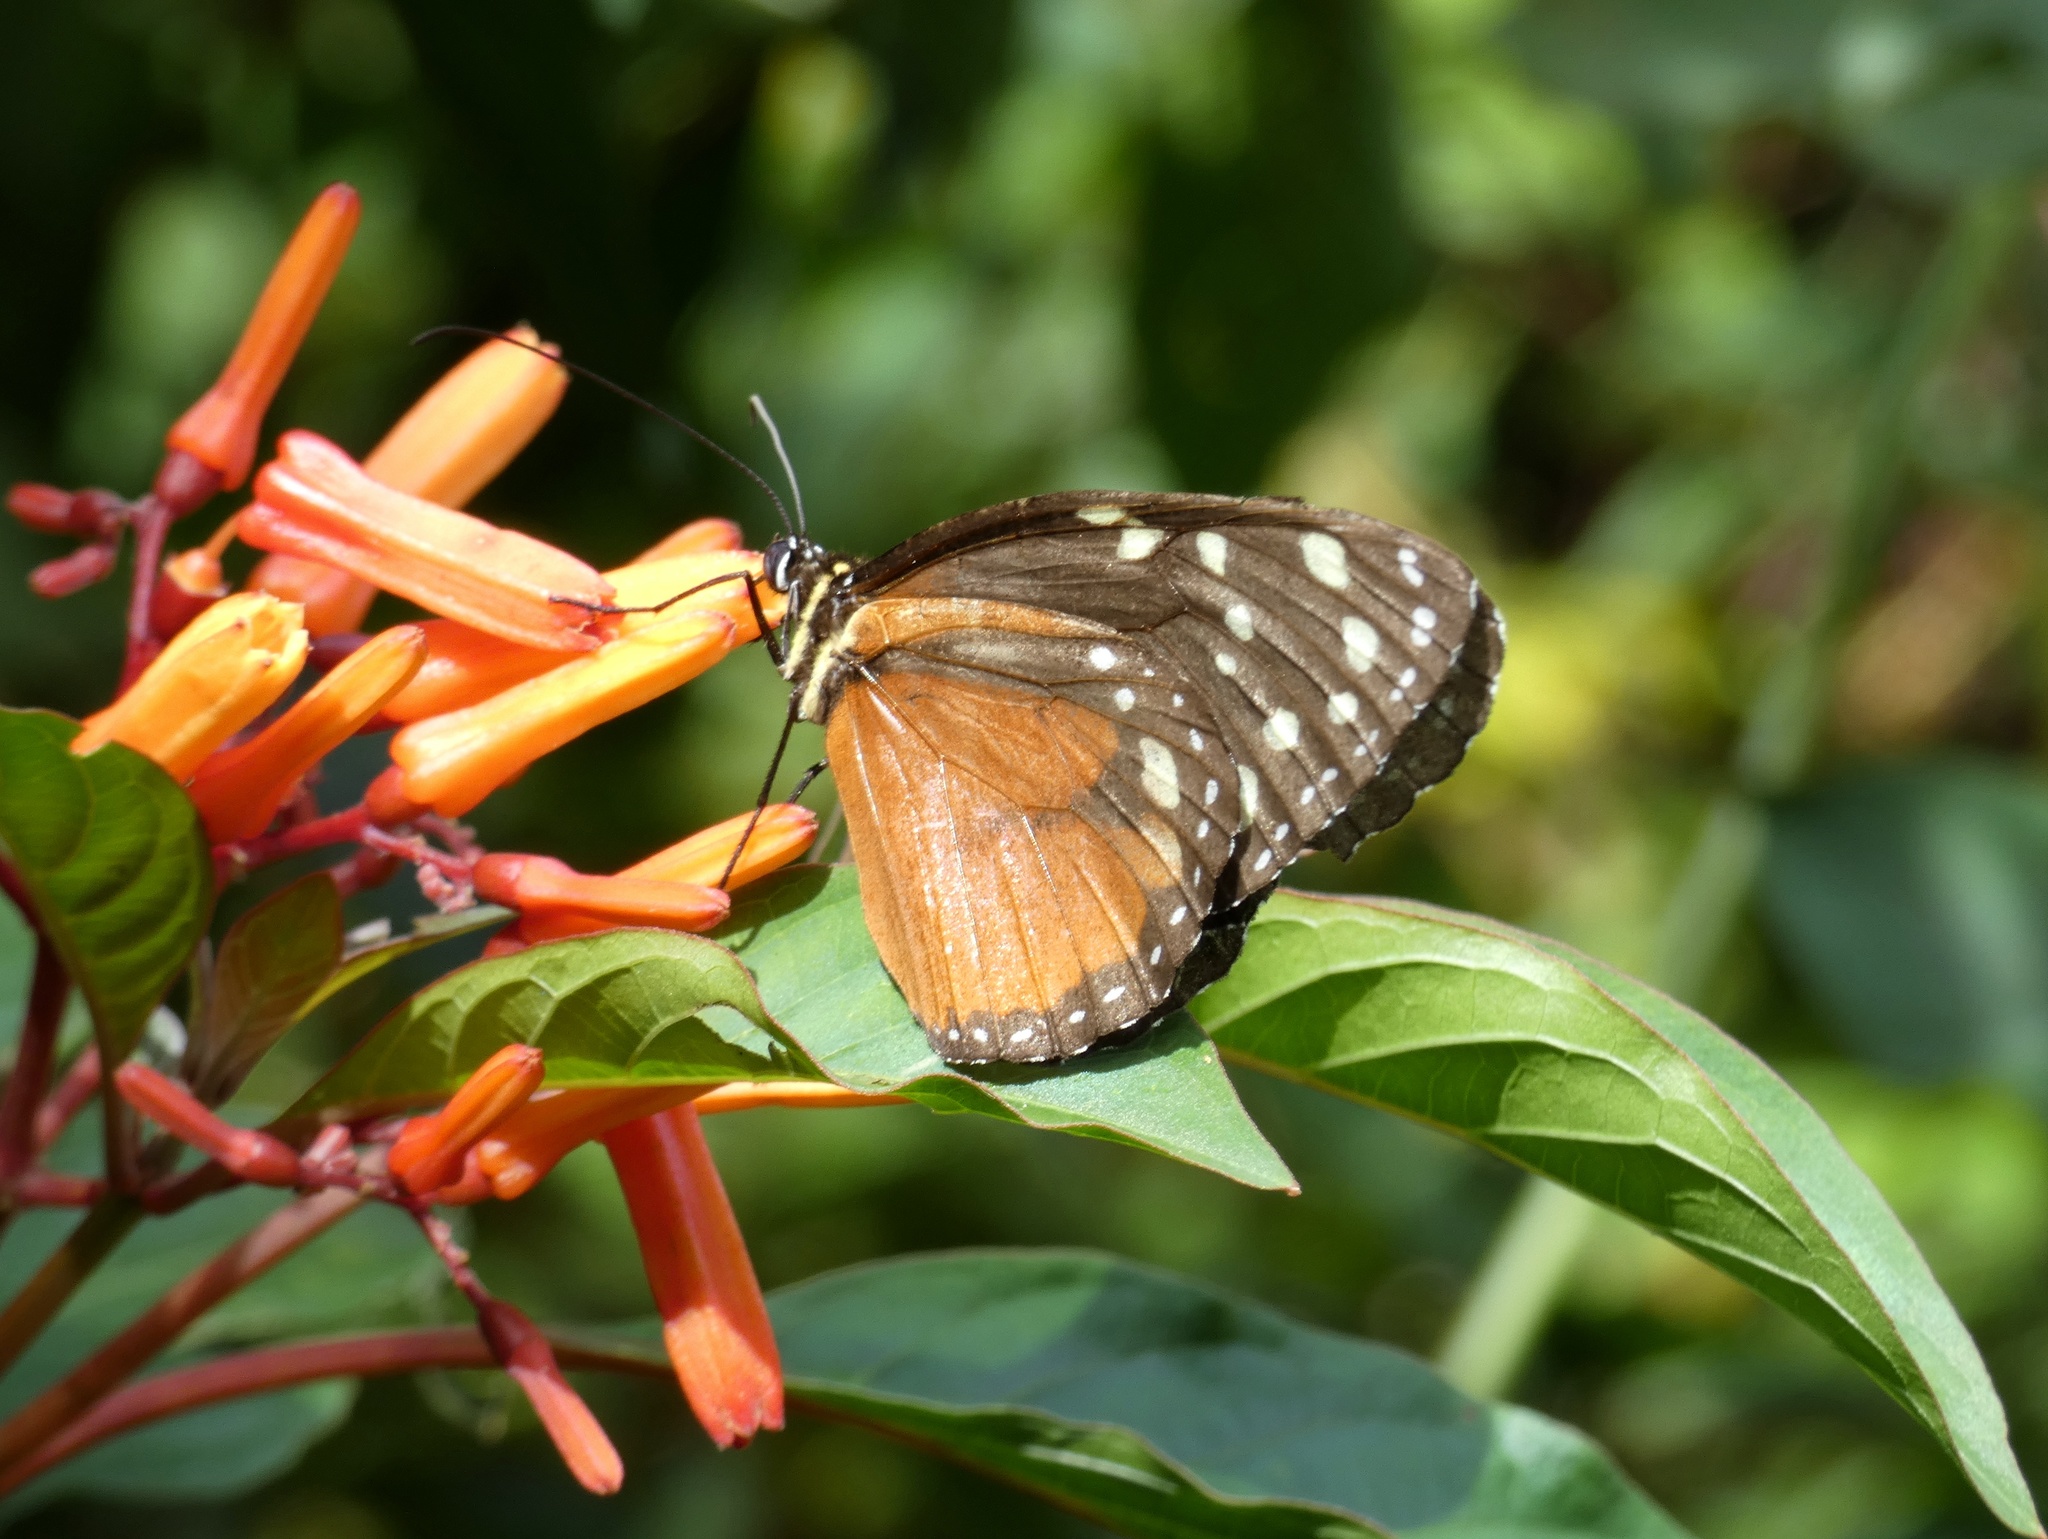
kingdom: Animalia
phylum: Arthropoda
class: Insecta
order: Lepidoptera
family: Nymphalidae
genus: Tithorea
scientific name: Tithorea tarricina
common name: Cream-spotted tigerwing
